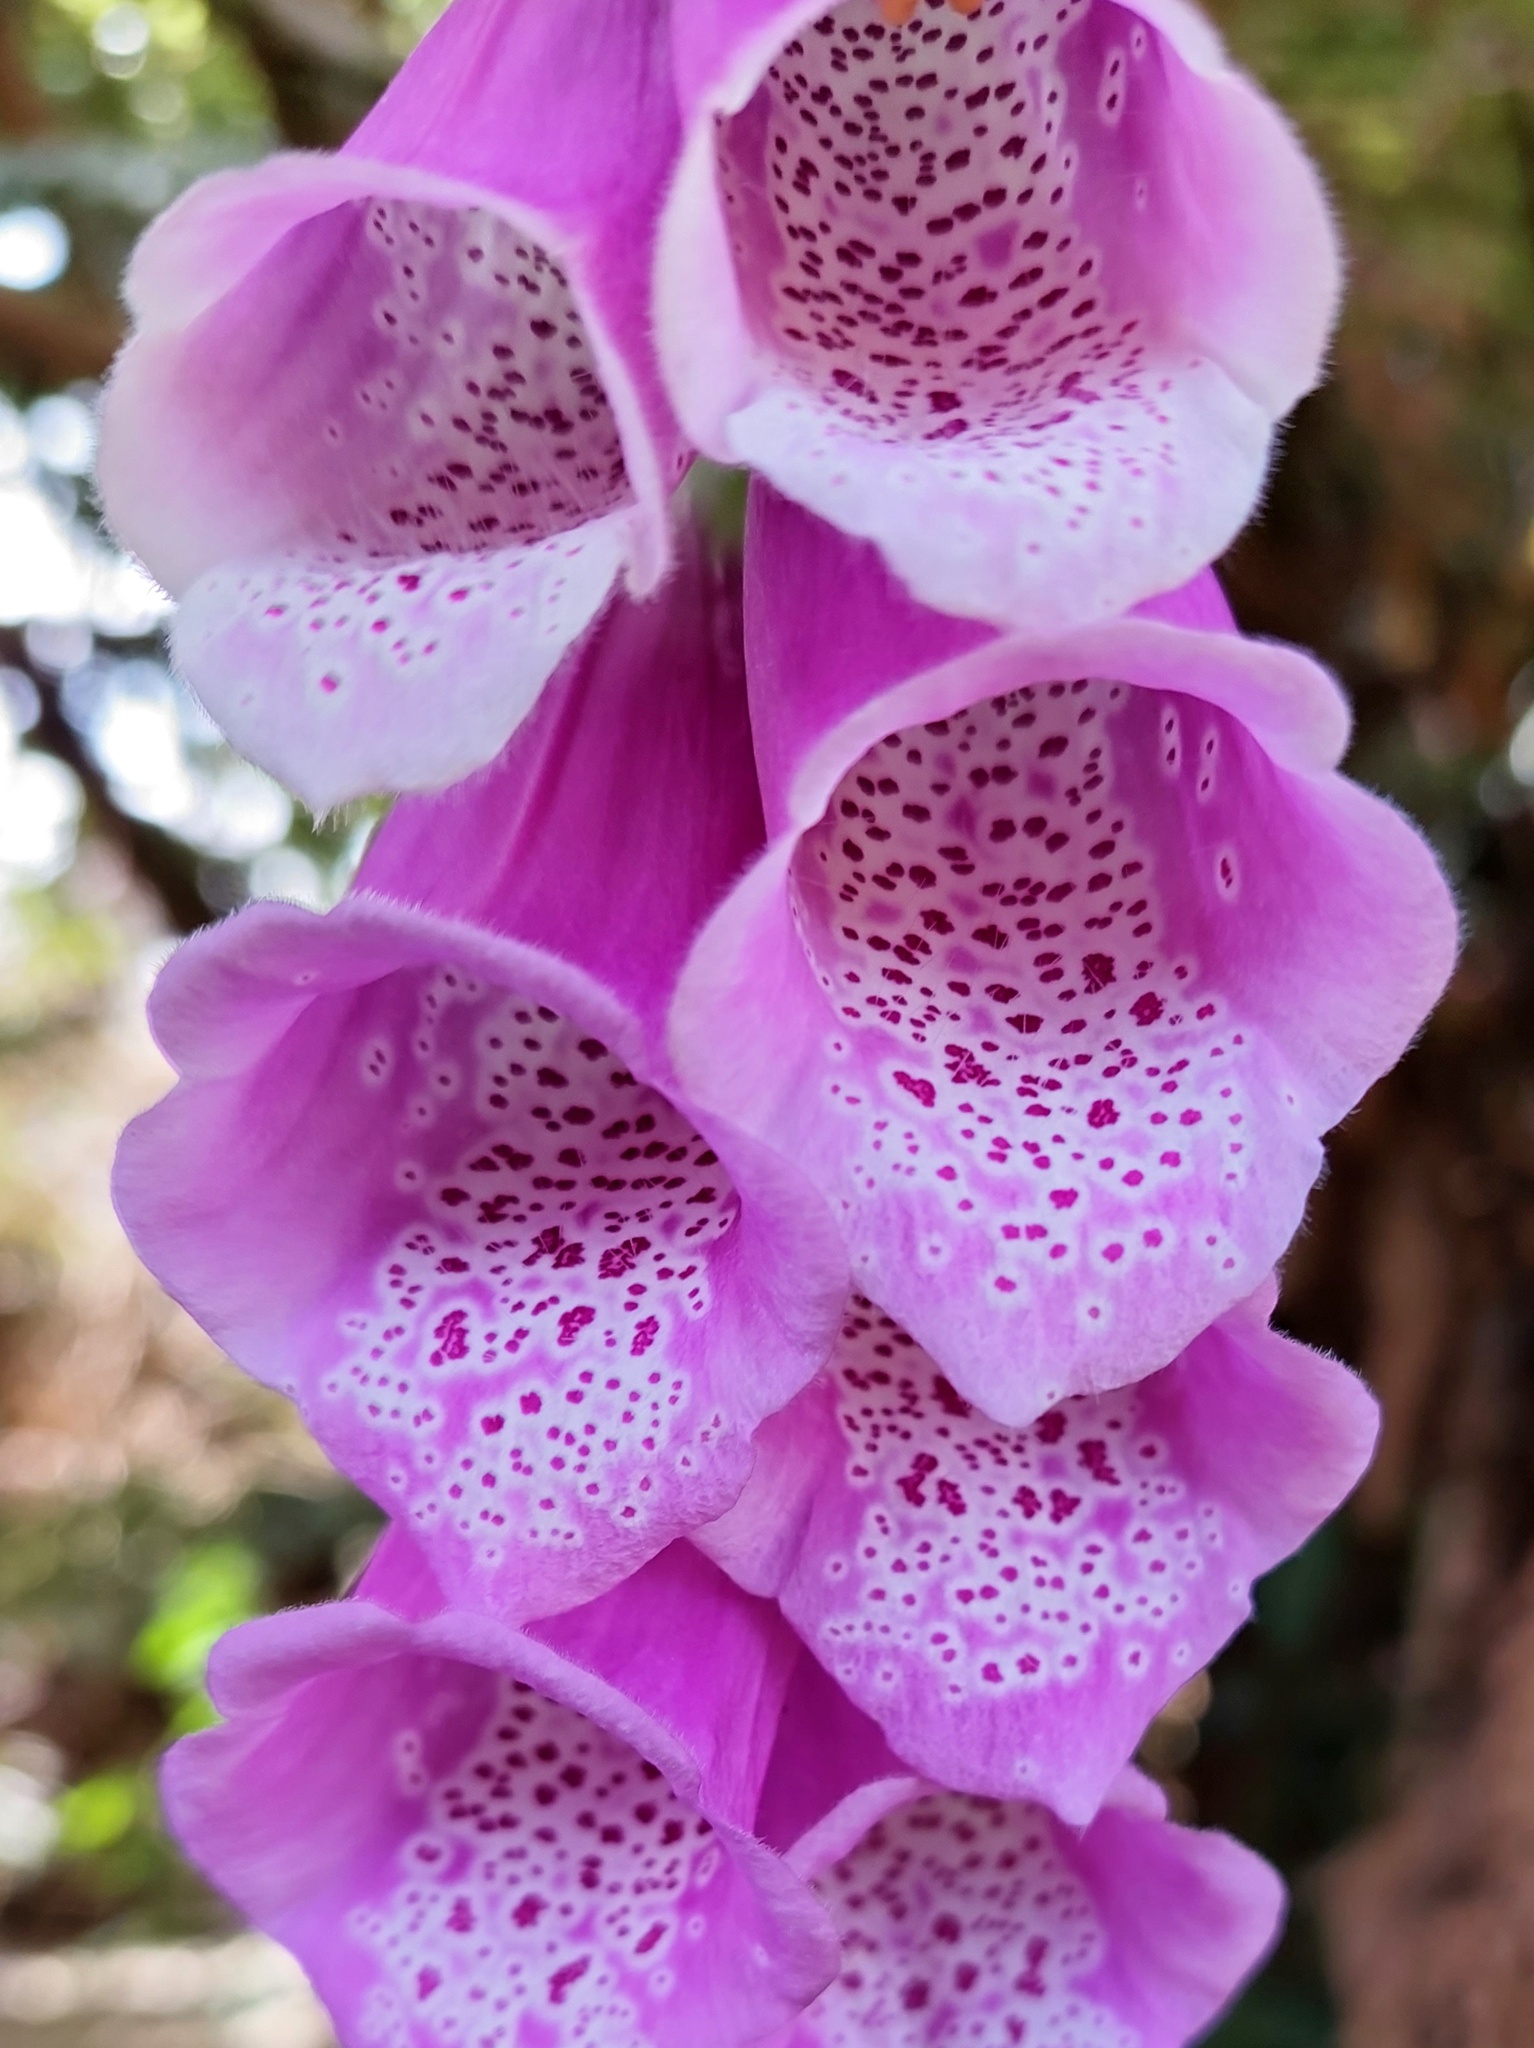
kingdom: Plantae
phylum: Tracheophyta
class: Magnoliopsida
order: Lamiales
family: Plantaginaceae
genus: Digitalis
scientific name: Digitalis purpurea
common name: Foxglove
